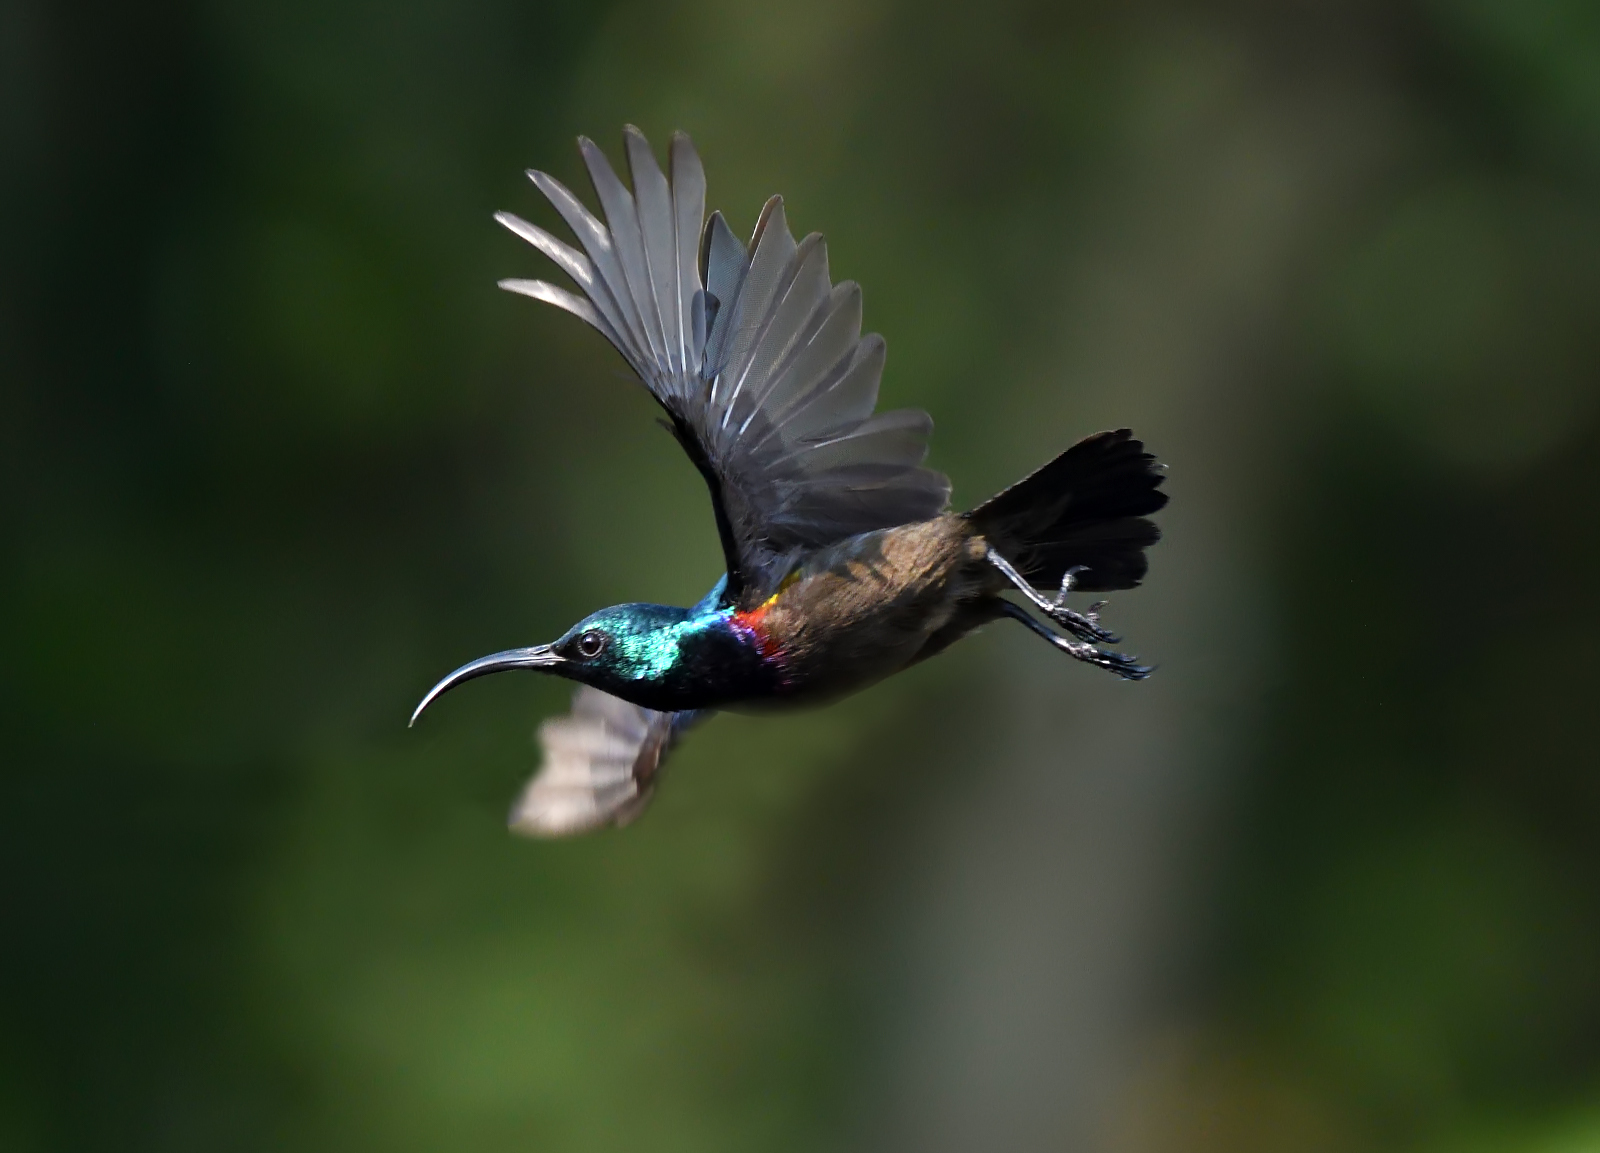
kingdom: Animalia
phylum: Chordata
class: Aves
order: Passeriformes
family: Nectariniidae
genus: Cinnyris
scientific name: Cinnyris lotenius
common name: Loten's sunbird
